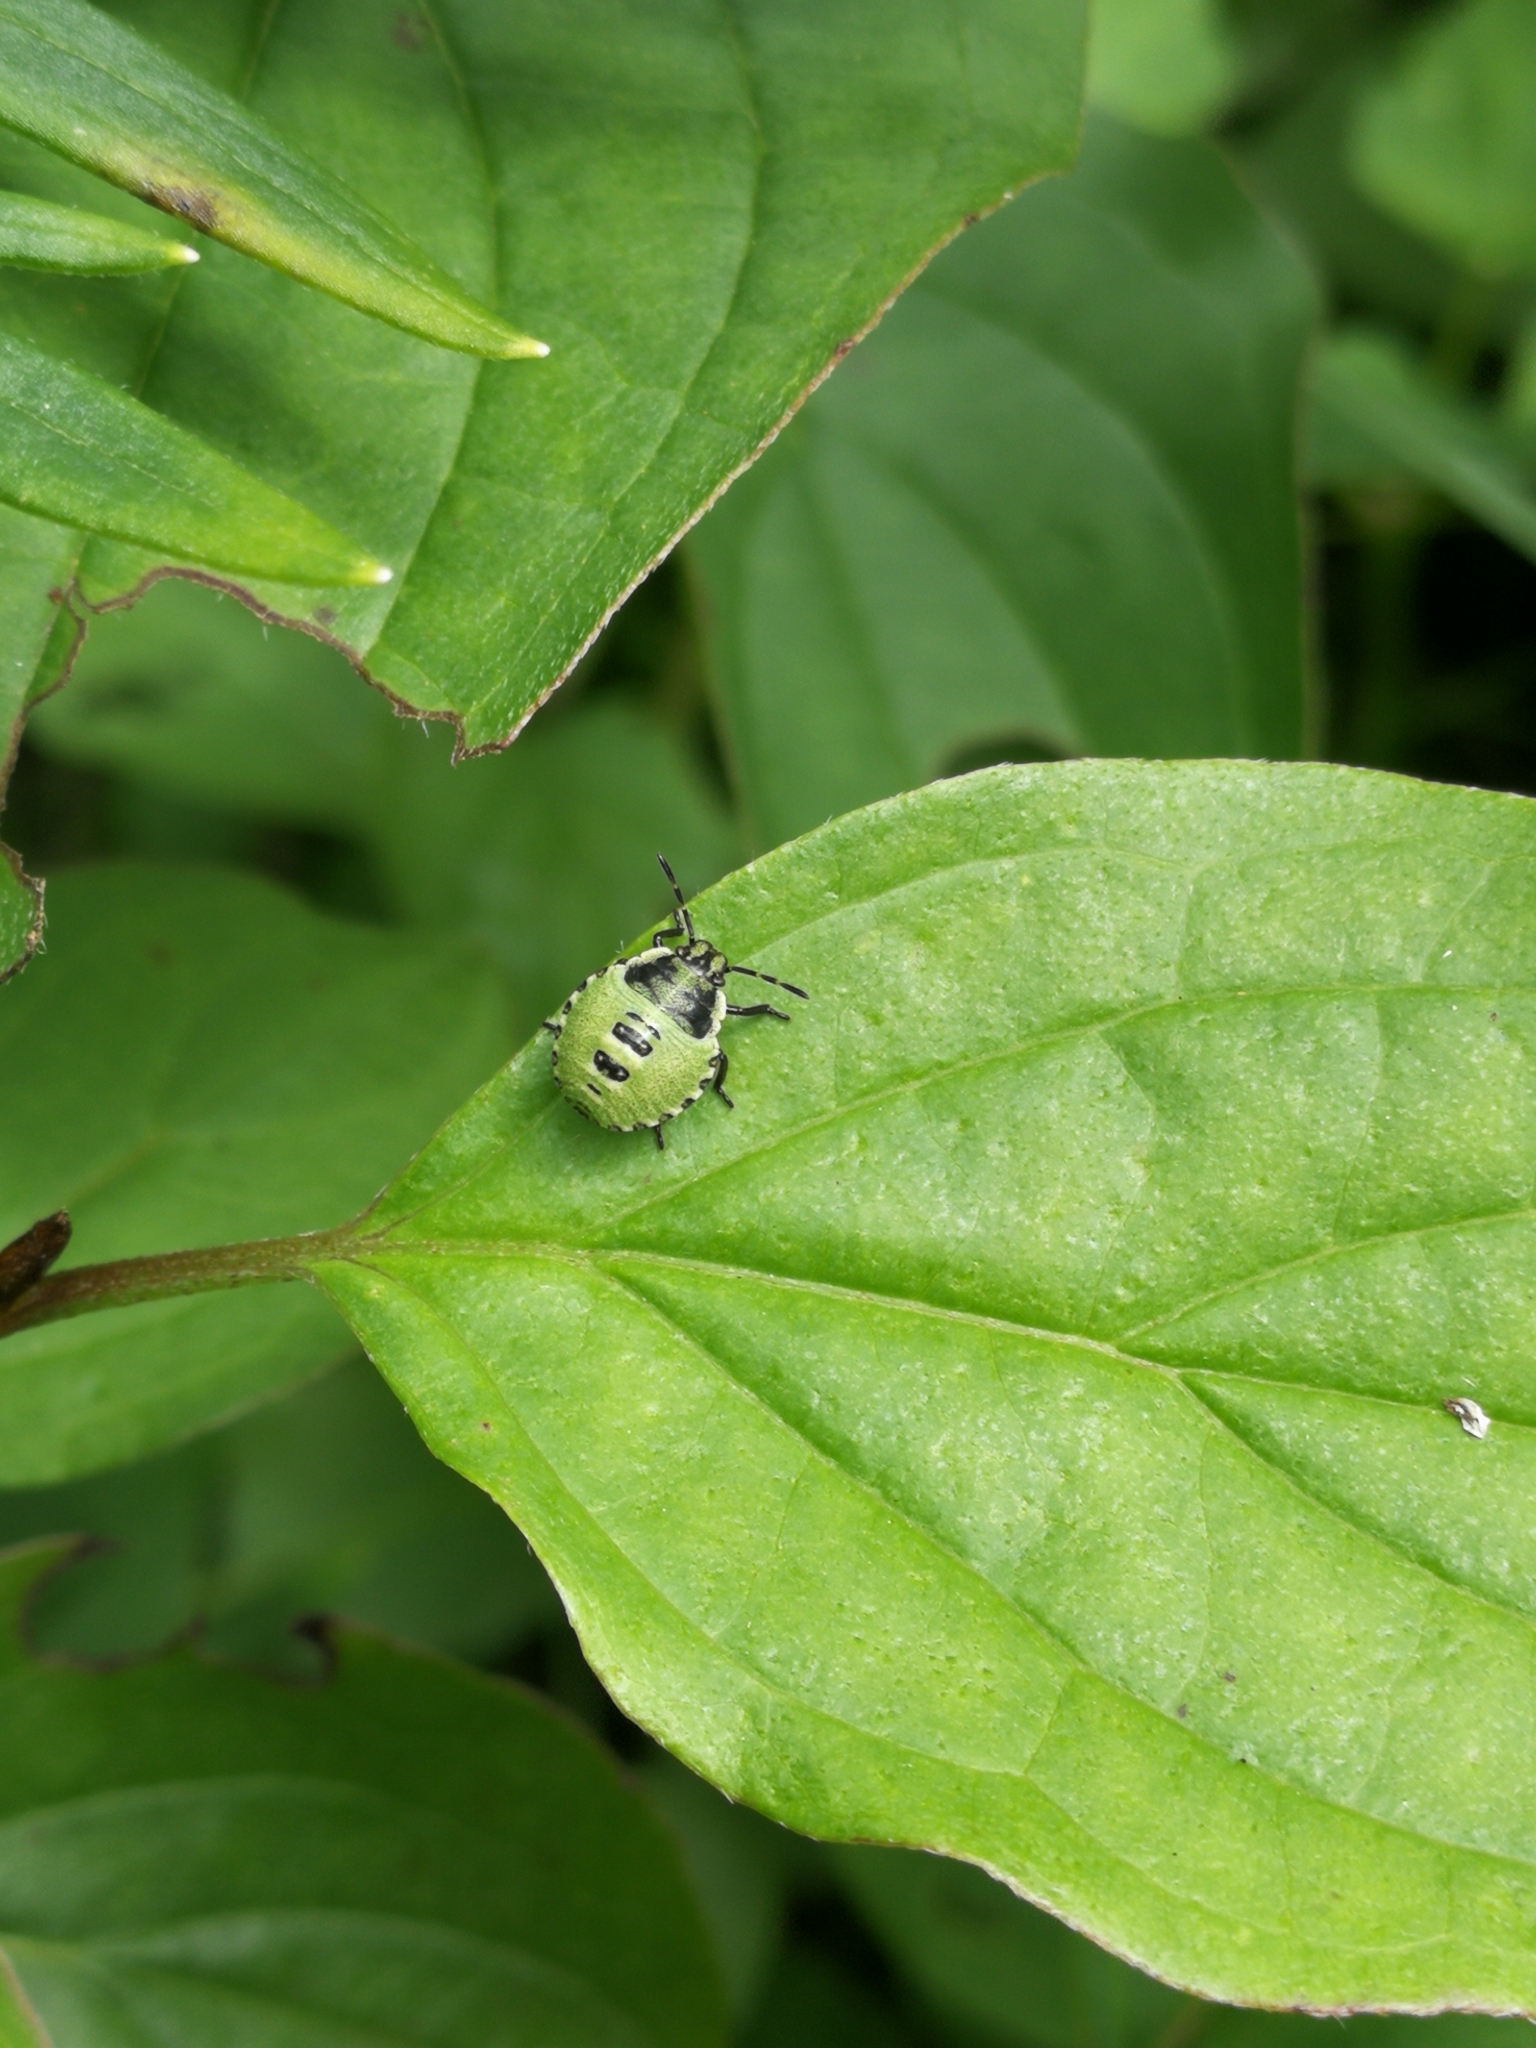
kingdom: Animalia
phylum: Arthropoda
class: Insecta
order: Hemiptera
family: Pentatomidae
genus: Palomena
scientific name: Palomena prasina
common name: Green shieldbug
